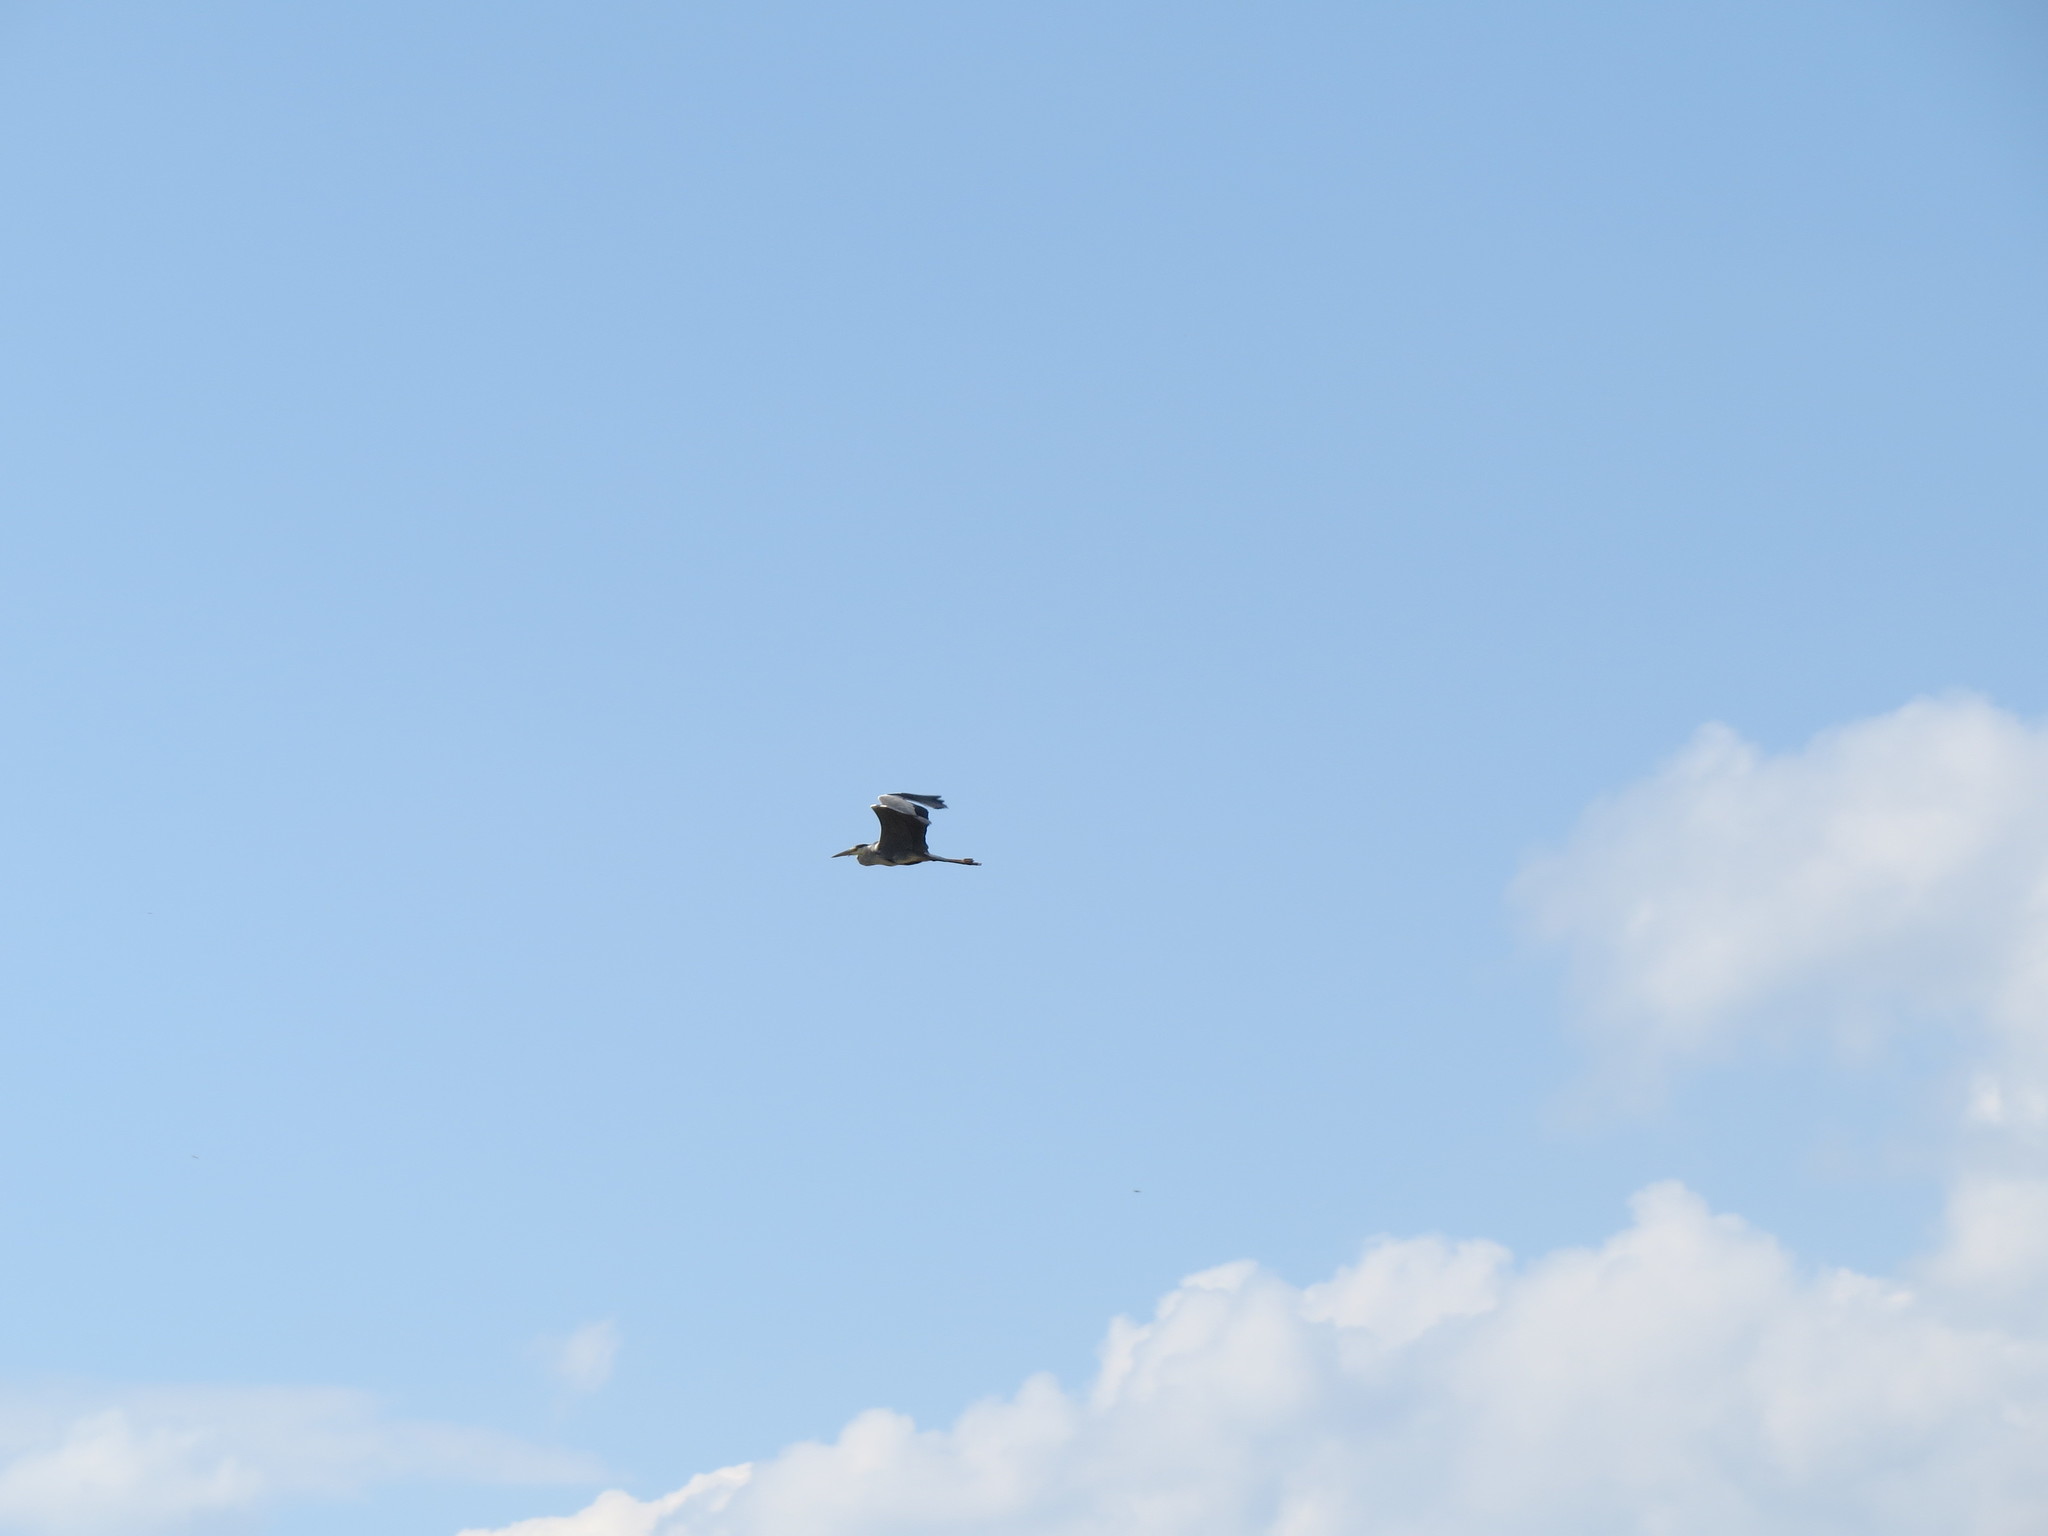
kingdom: Animalia
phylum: Chordata
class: Aves
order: Pelecaniformes
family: Ardeidae
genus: Ardea
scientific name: Ardea cinerea
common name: Grey heron
